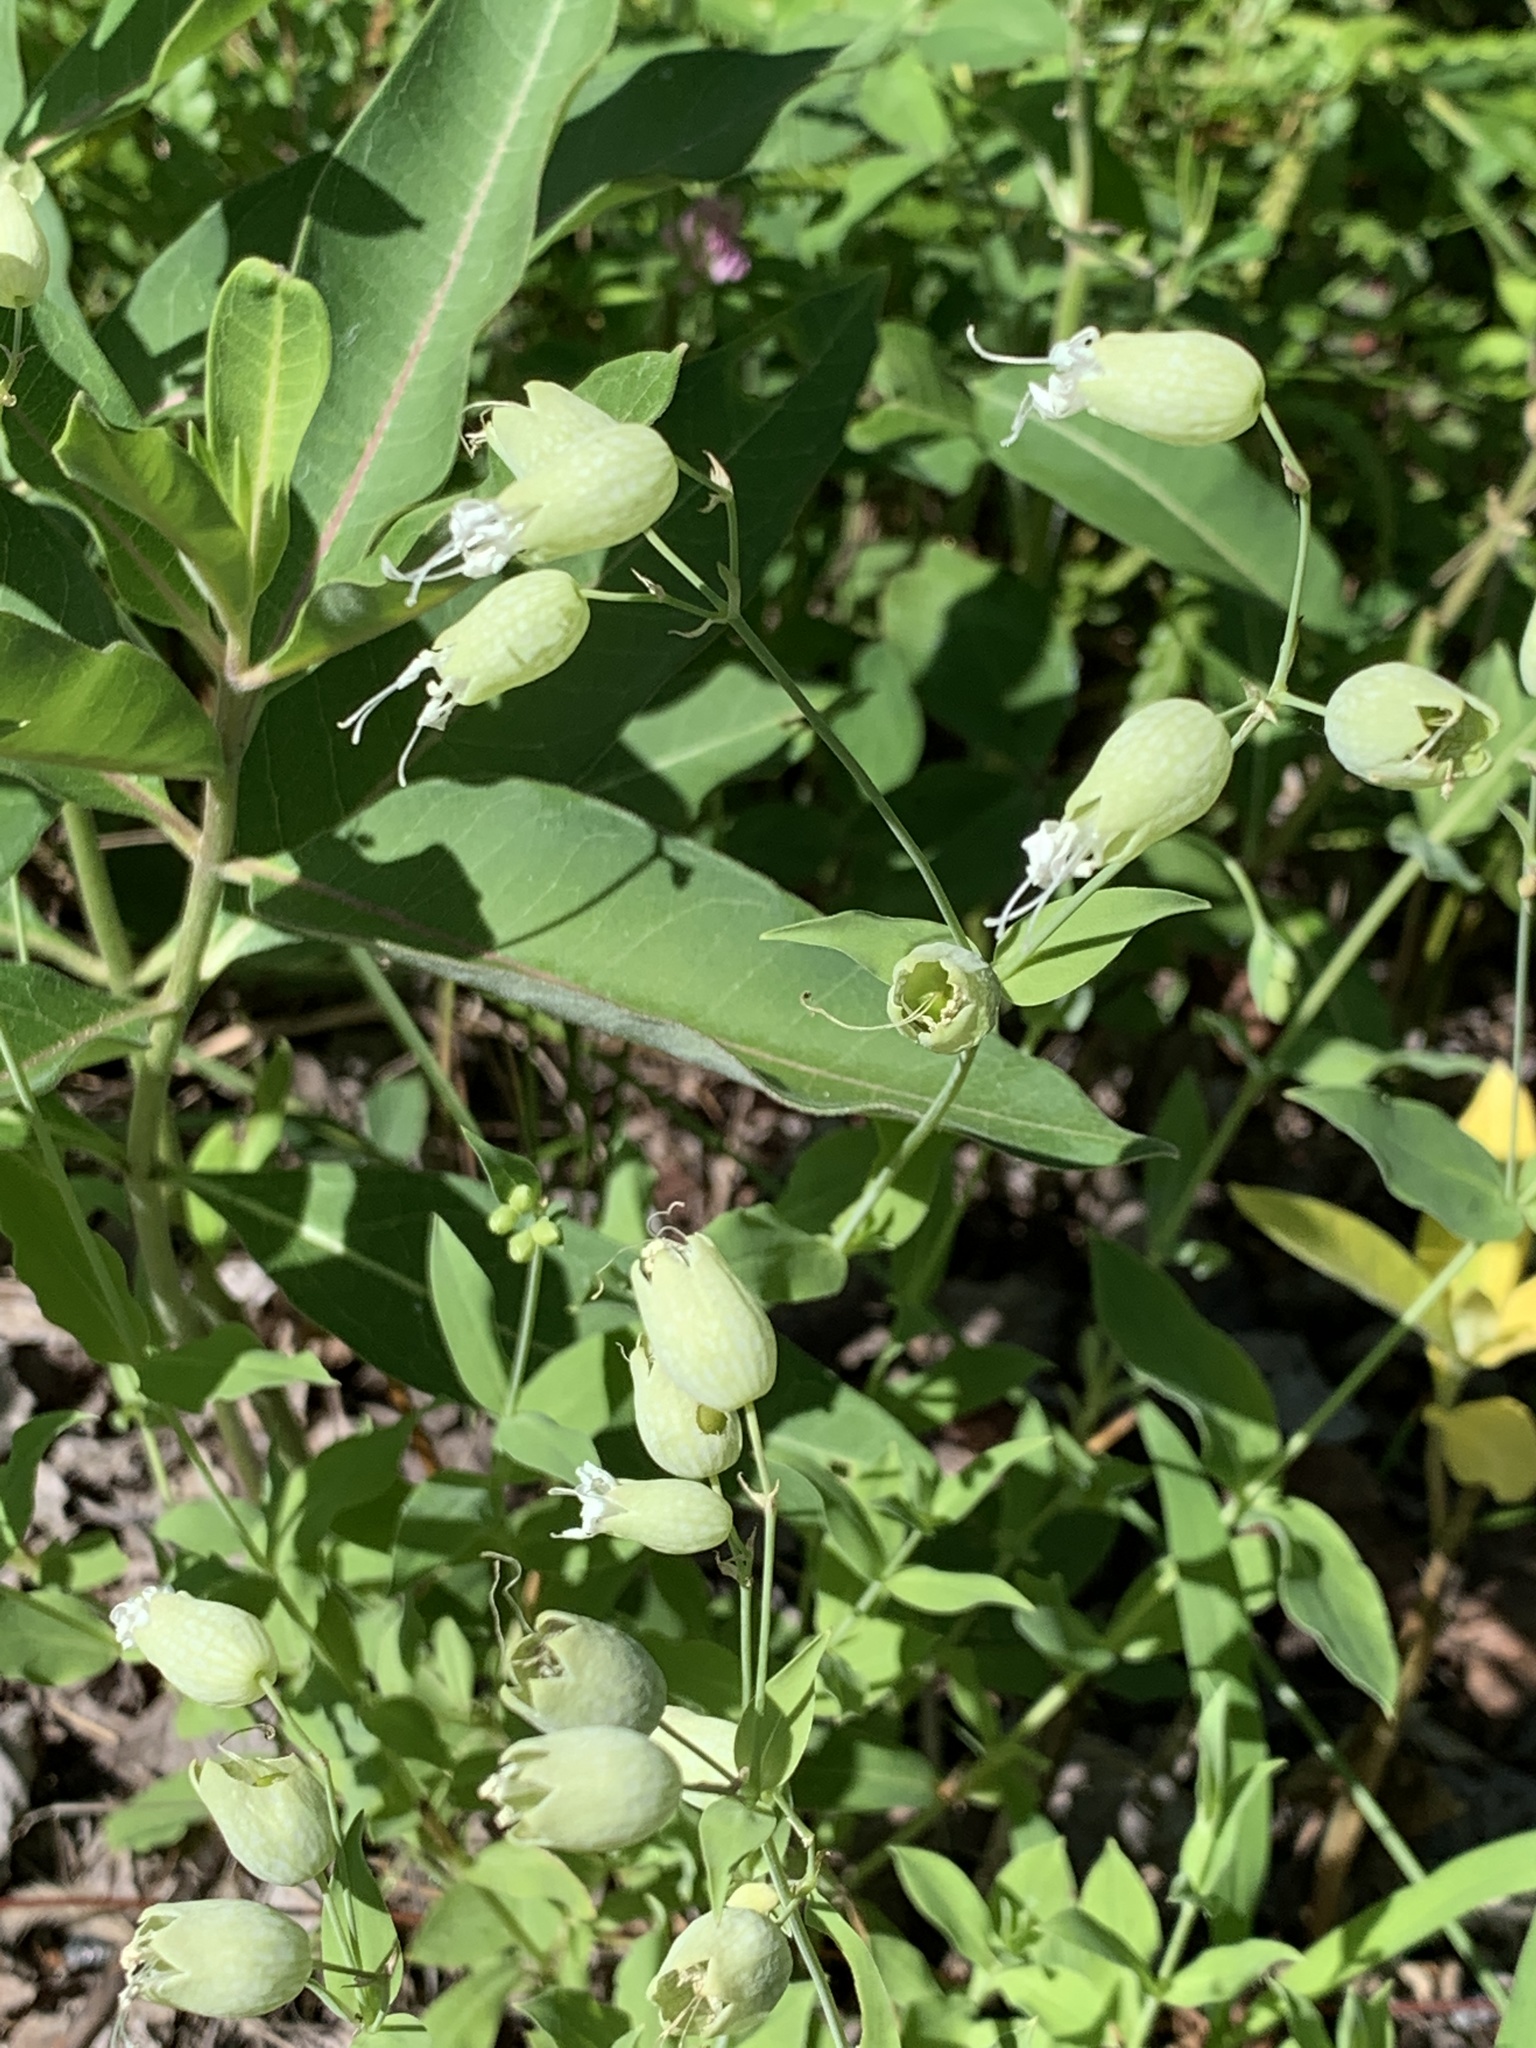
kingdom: Plantae
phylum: Tracheophyta
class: Magnoliopsida
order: Caryophyllales
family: Caryophyllaceae
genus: Silene
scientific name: Silene vulgaris
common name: Bladder campion
